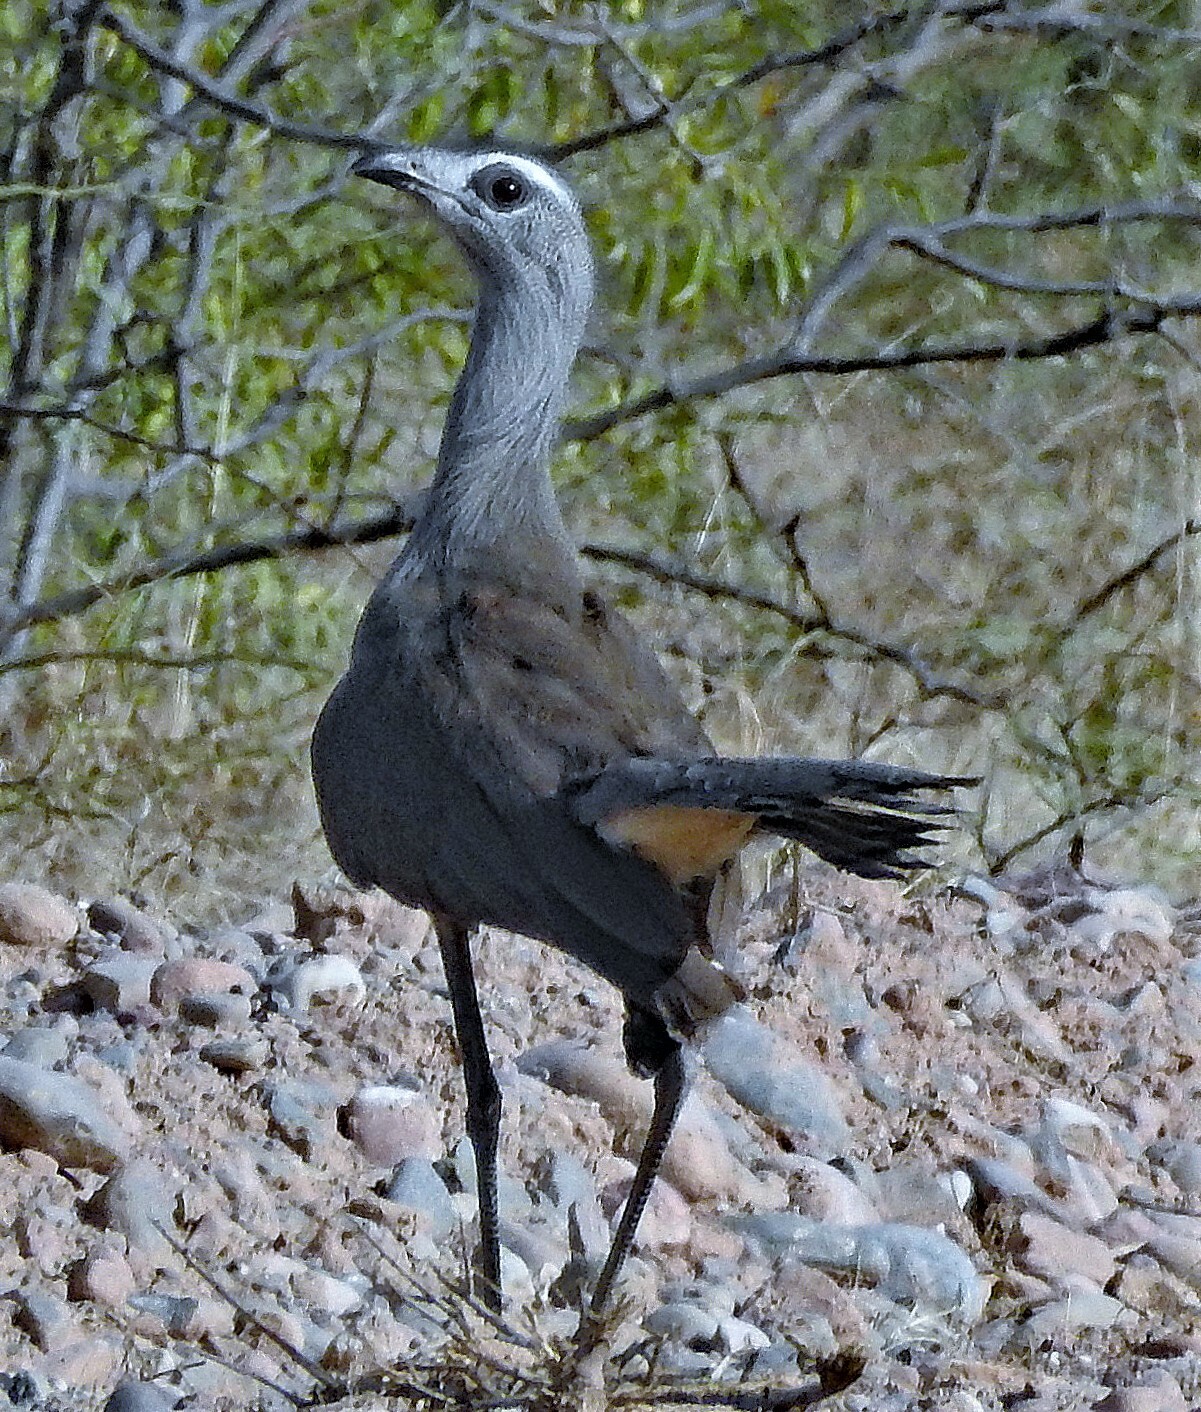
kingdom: Animalia
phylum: Chordata
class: Aves
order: Cariamiformes
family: Cariamidae
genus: Chunga
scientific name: Chunga burmeisteri
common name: Black-legged seriema
